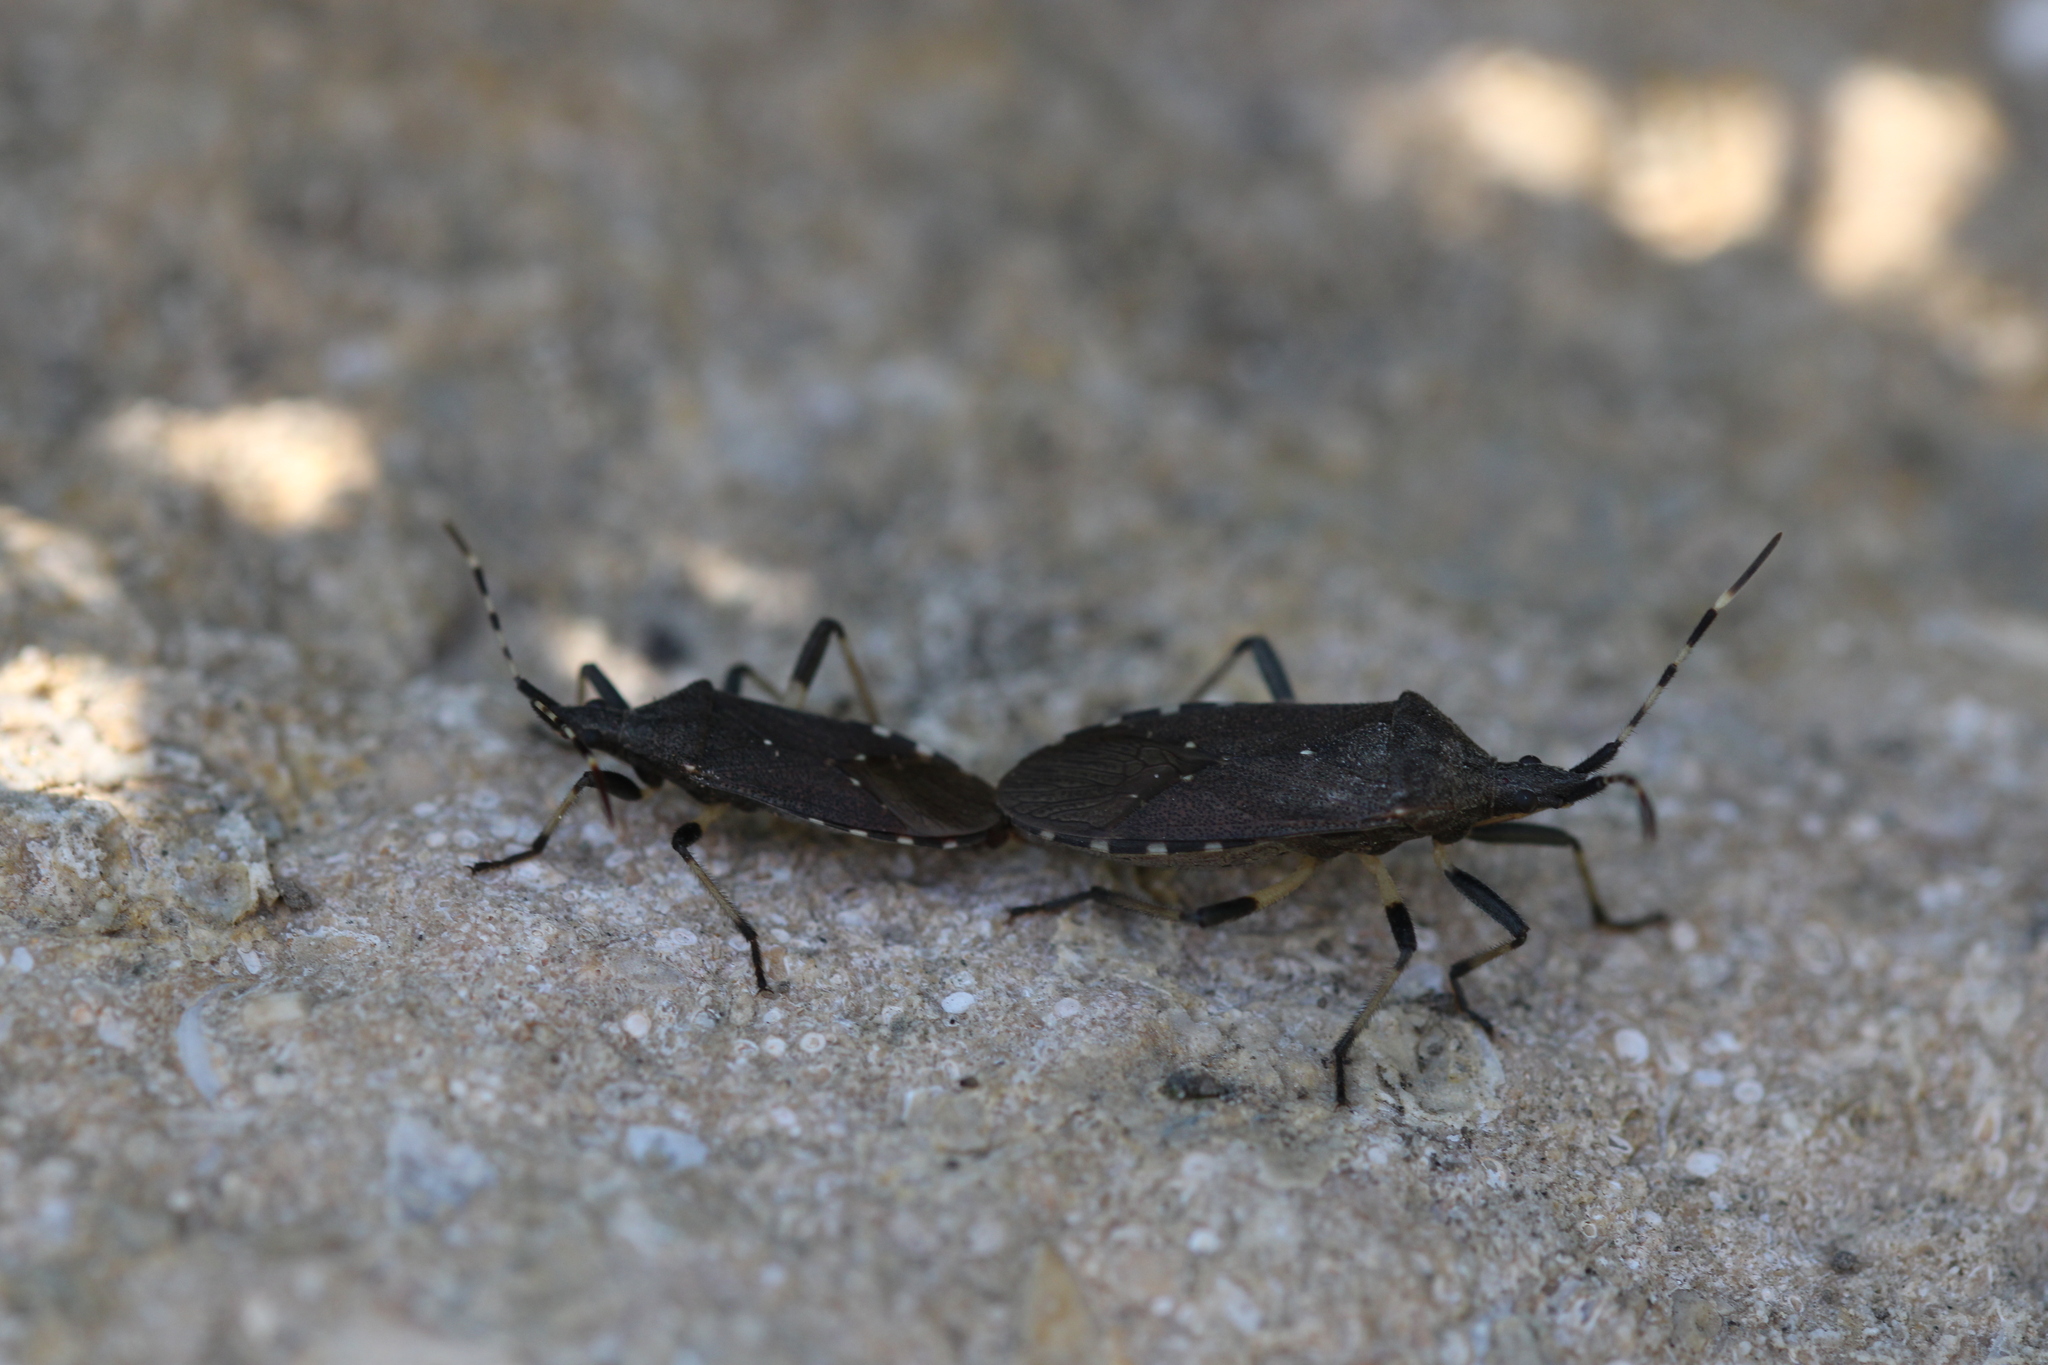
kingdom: Animalia
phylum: Arthropoda
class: Insecta
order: Hemiptera
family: Stenocephalidae
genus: Dicranocephalus
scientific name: Dicranocephalus agilis
